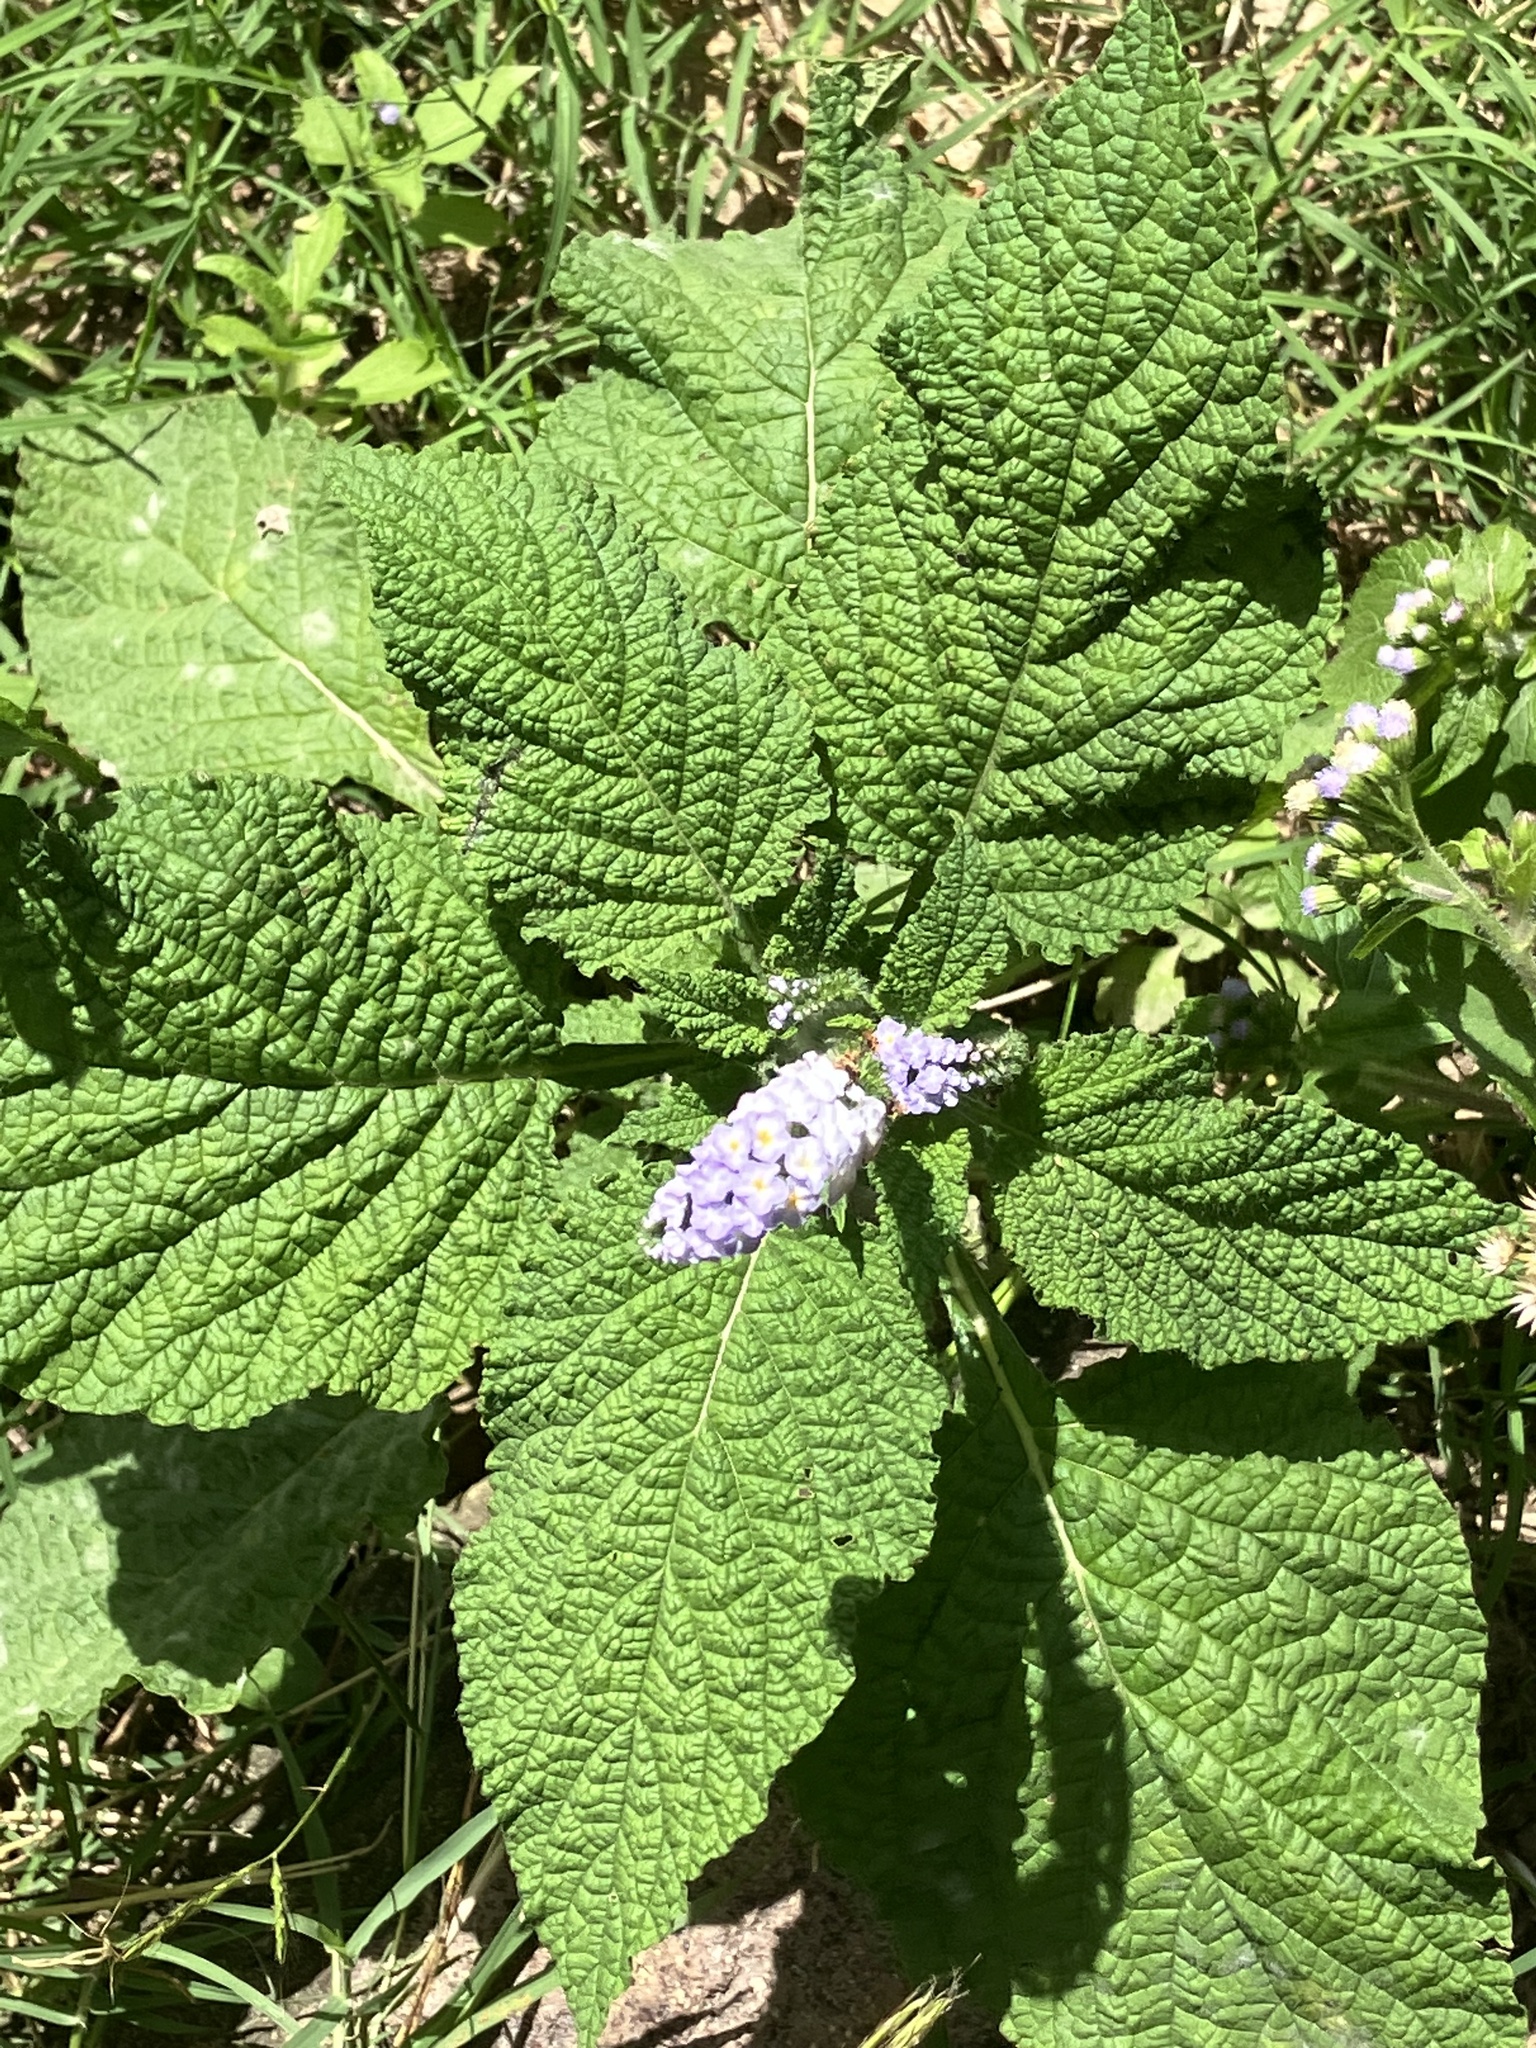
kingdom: Plantae
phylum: Tracheophyta
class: Magnoliopsida
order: Boraginales
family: Heliotropiaceae
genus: Heliotropium
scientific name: Heliotropium indicum
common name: Indian heliotrope
